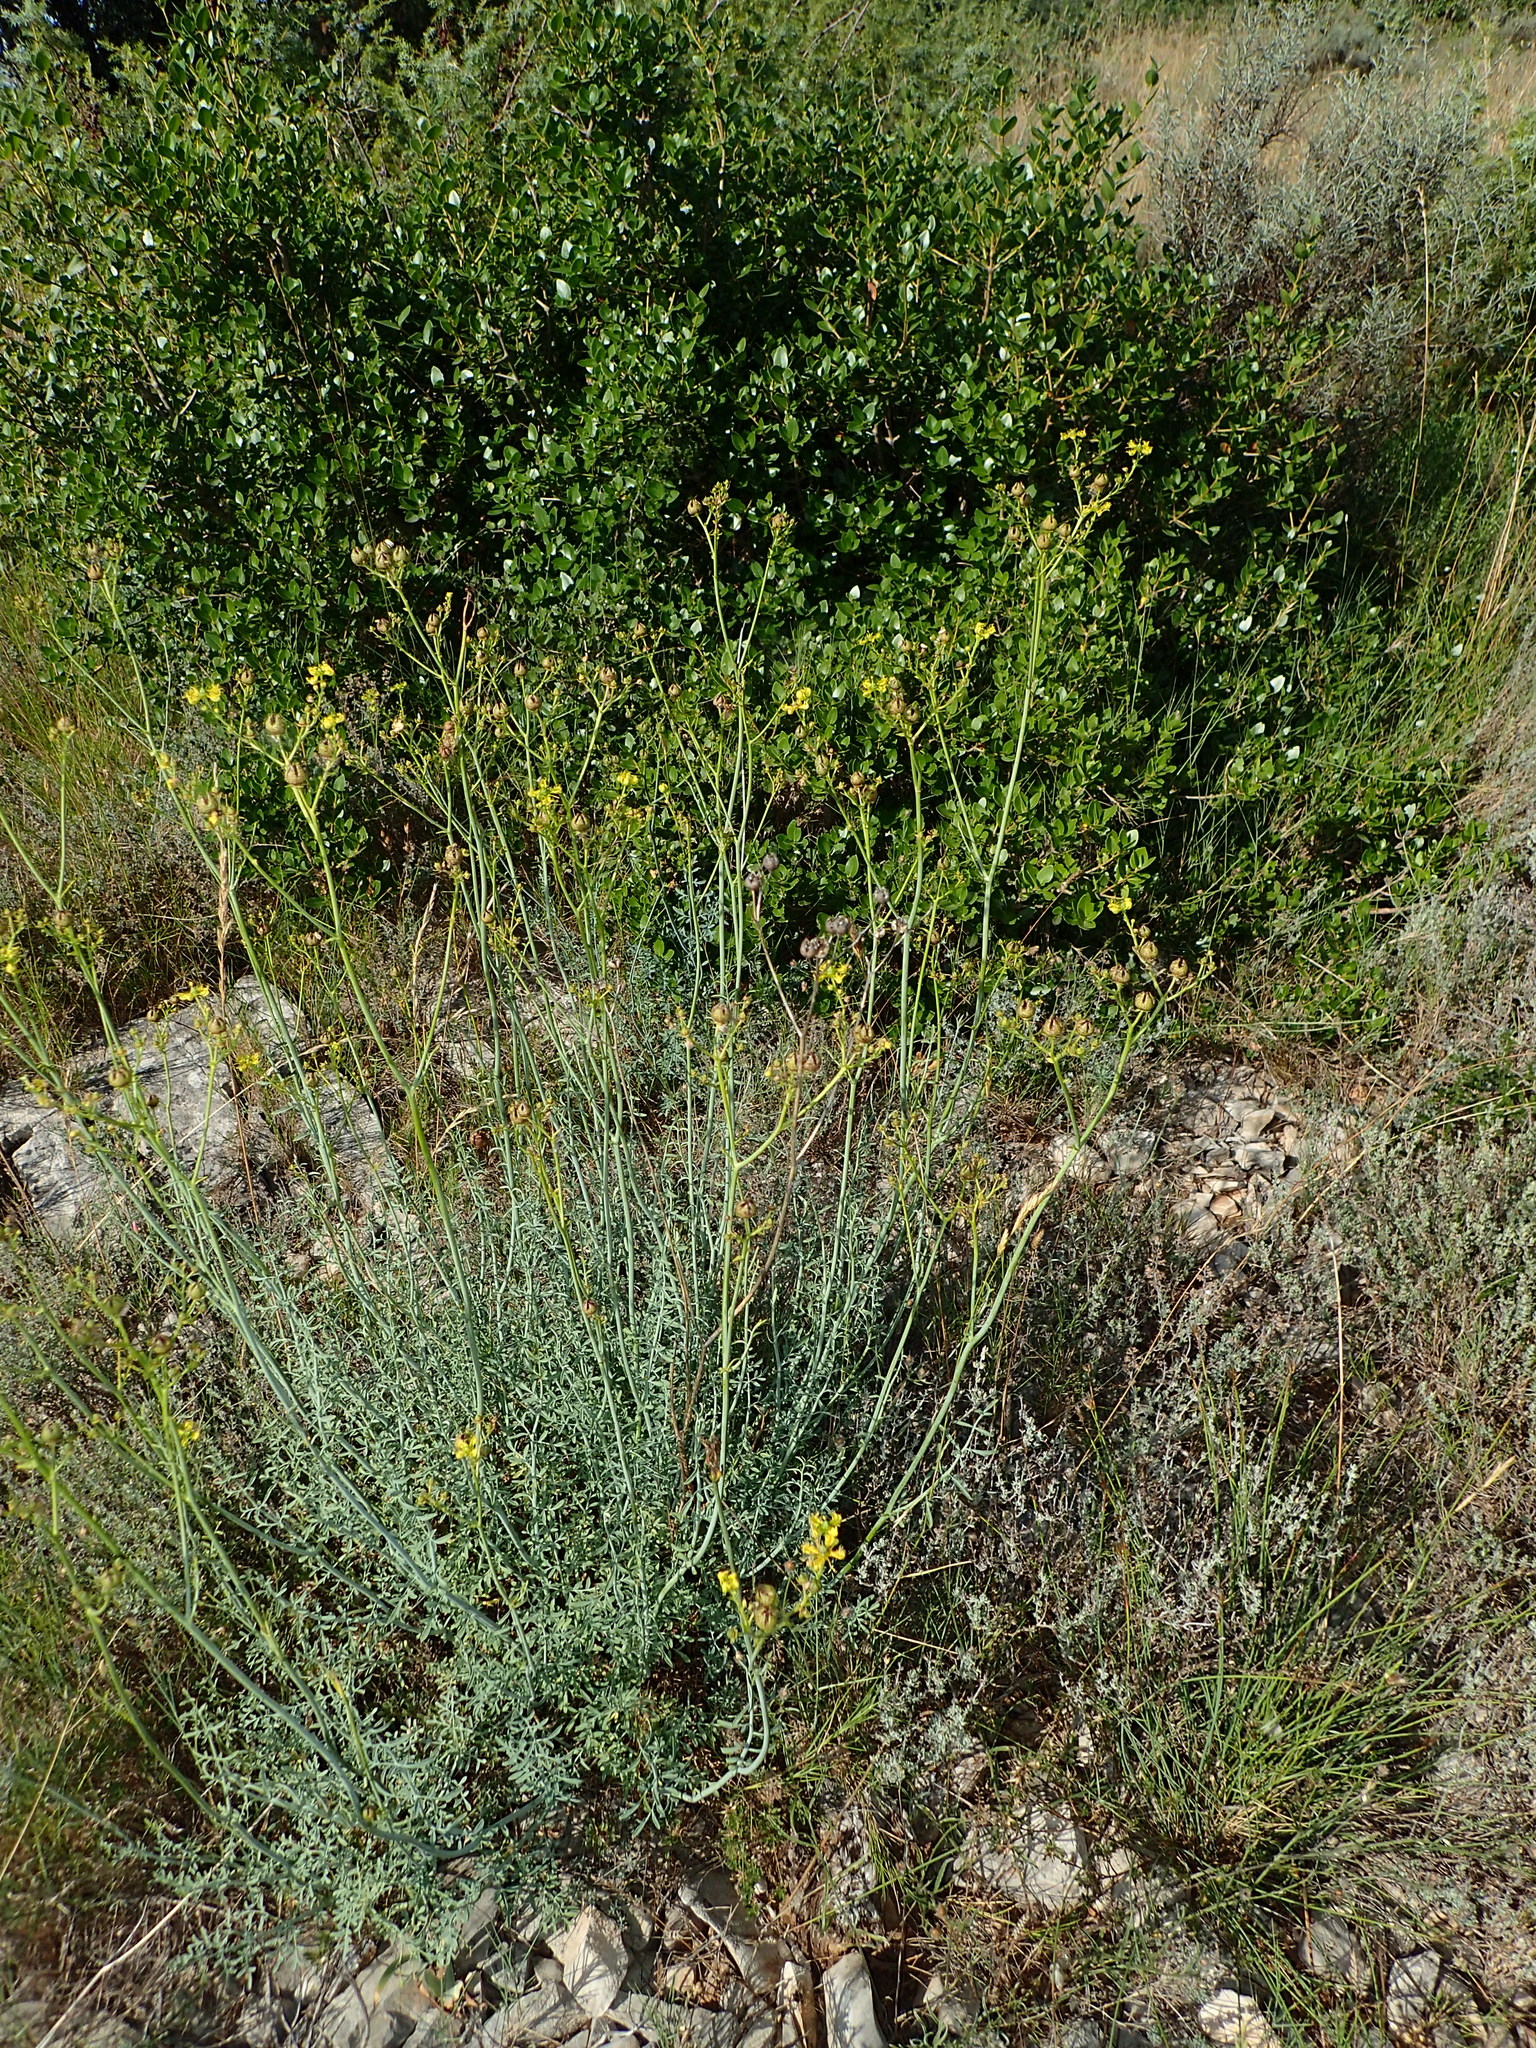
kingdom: Plantae
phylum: Tracheophyta
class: Magnoliopsida
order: Sapindales
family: Rutaceae
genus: Ruta
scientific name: Ruta angustifolia
